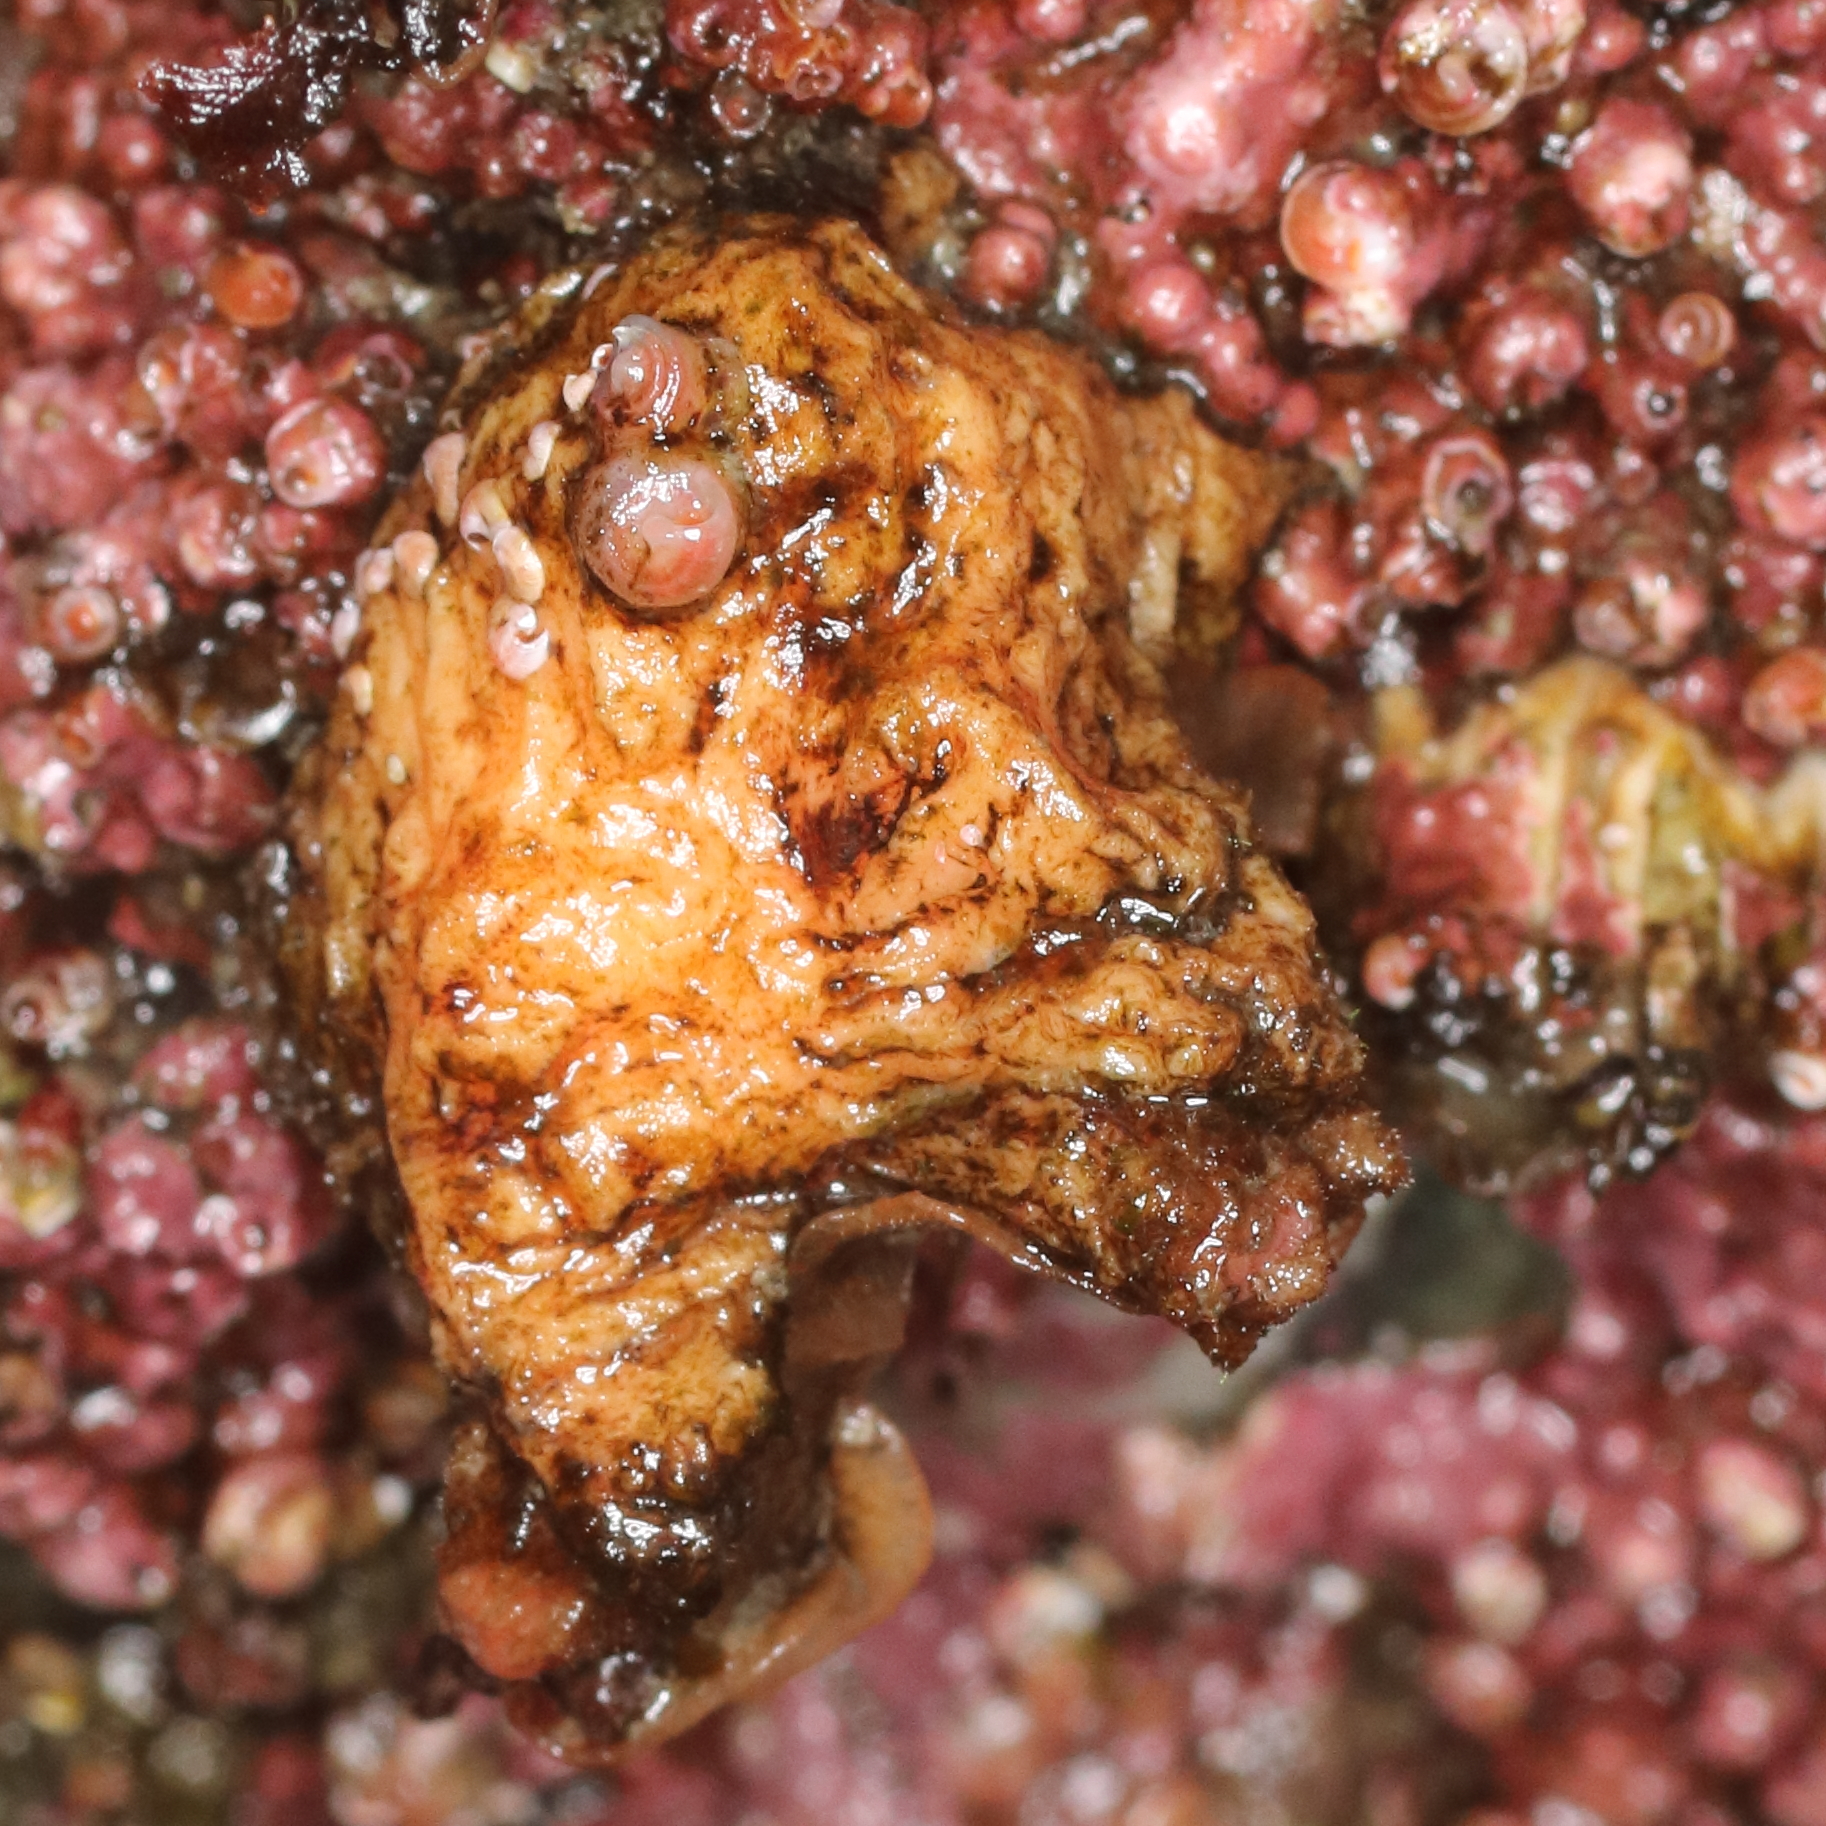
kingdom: Animalia
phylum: Chordata
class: Ascidiacea
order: Stolidobranchia
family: Pyuridae
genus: Pyura
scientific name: Pyura haustor
